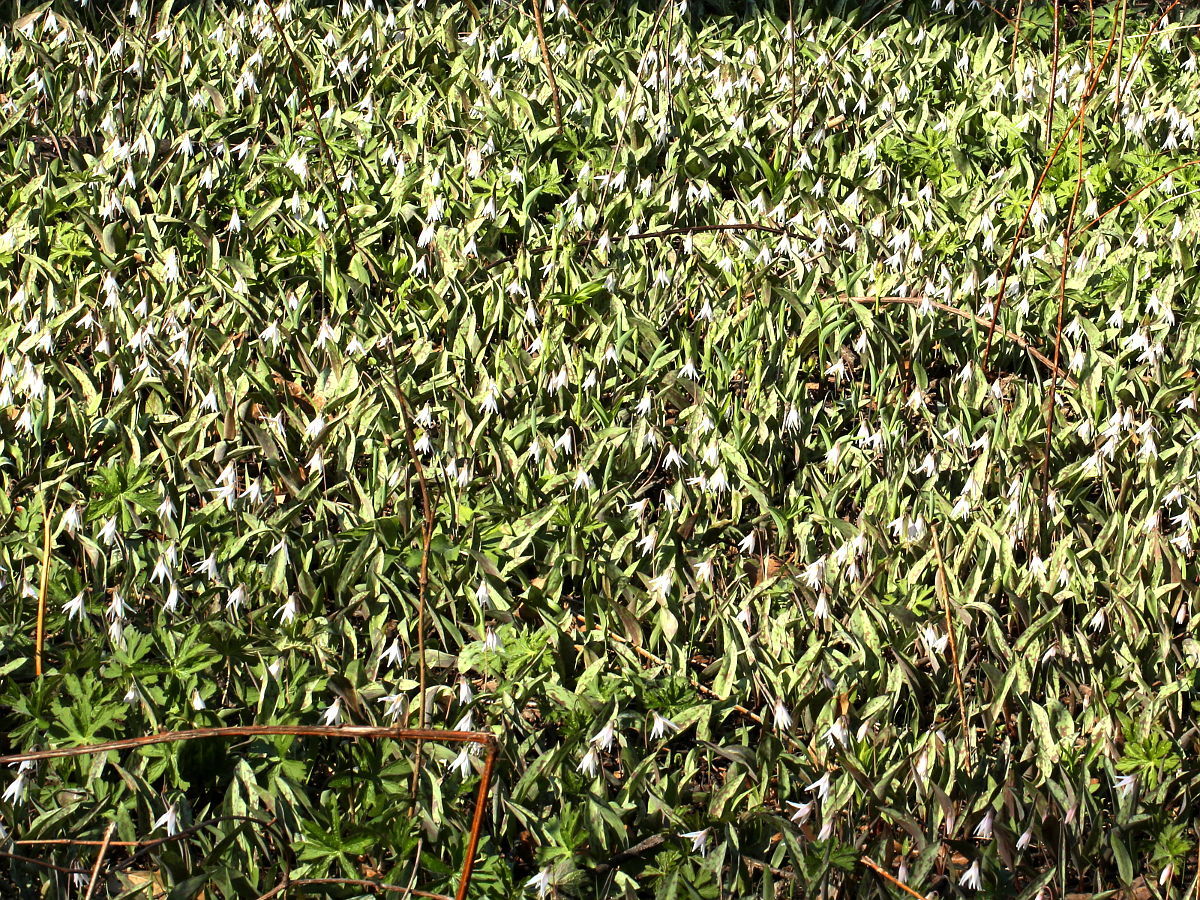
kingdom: Plantae
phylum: Tracheophyta
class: Liliopsida
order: Liliales
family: Liliaceae
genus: Erythronium
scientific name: Erythronium albidum
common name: White trout-lily
